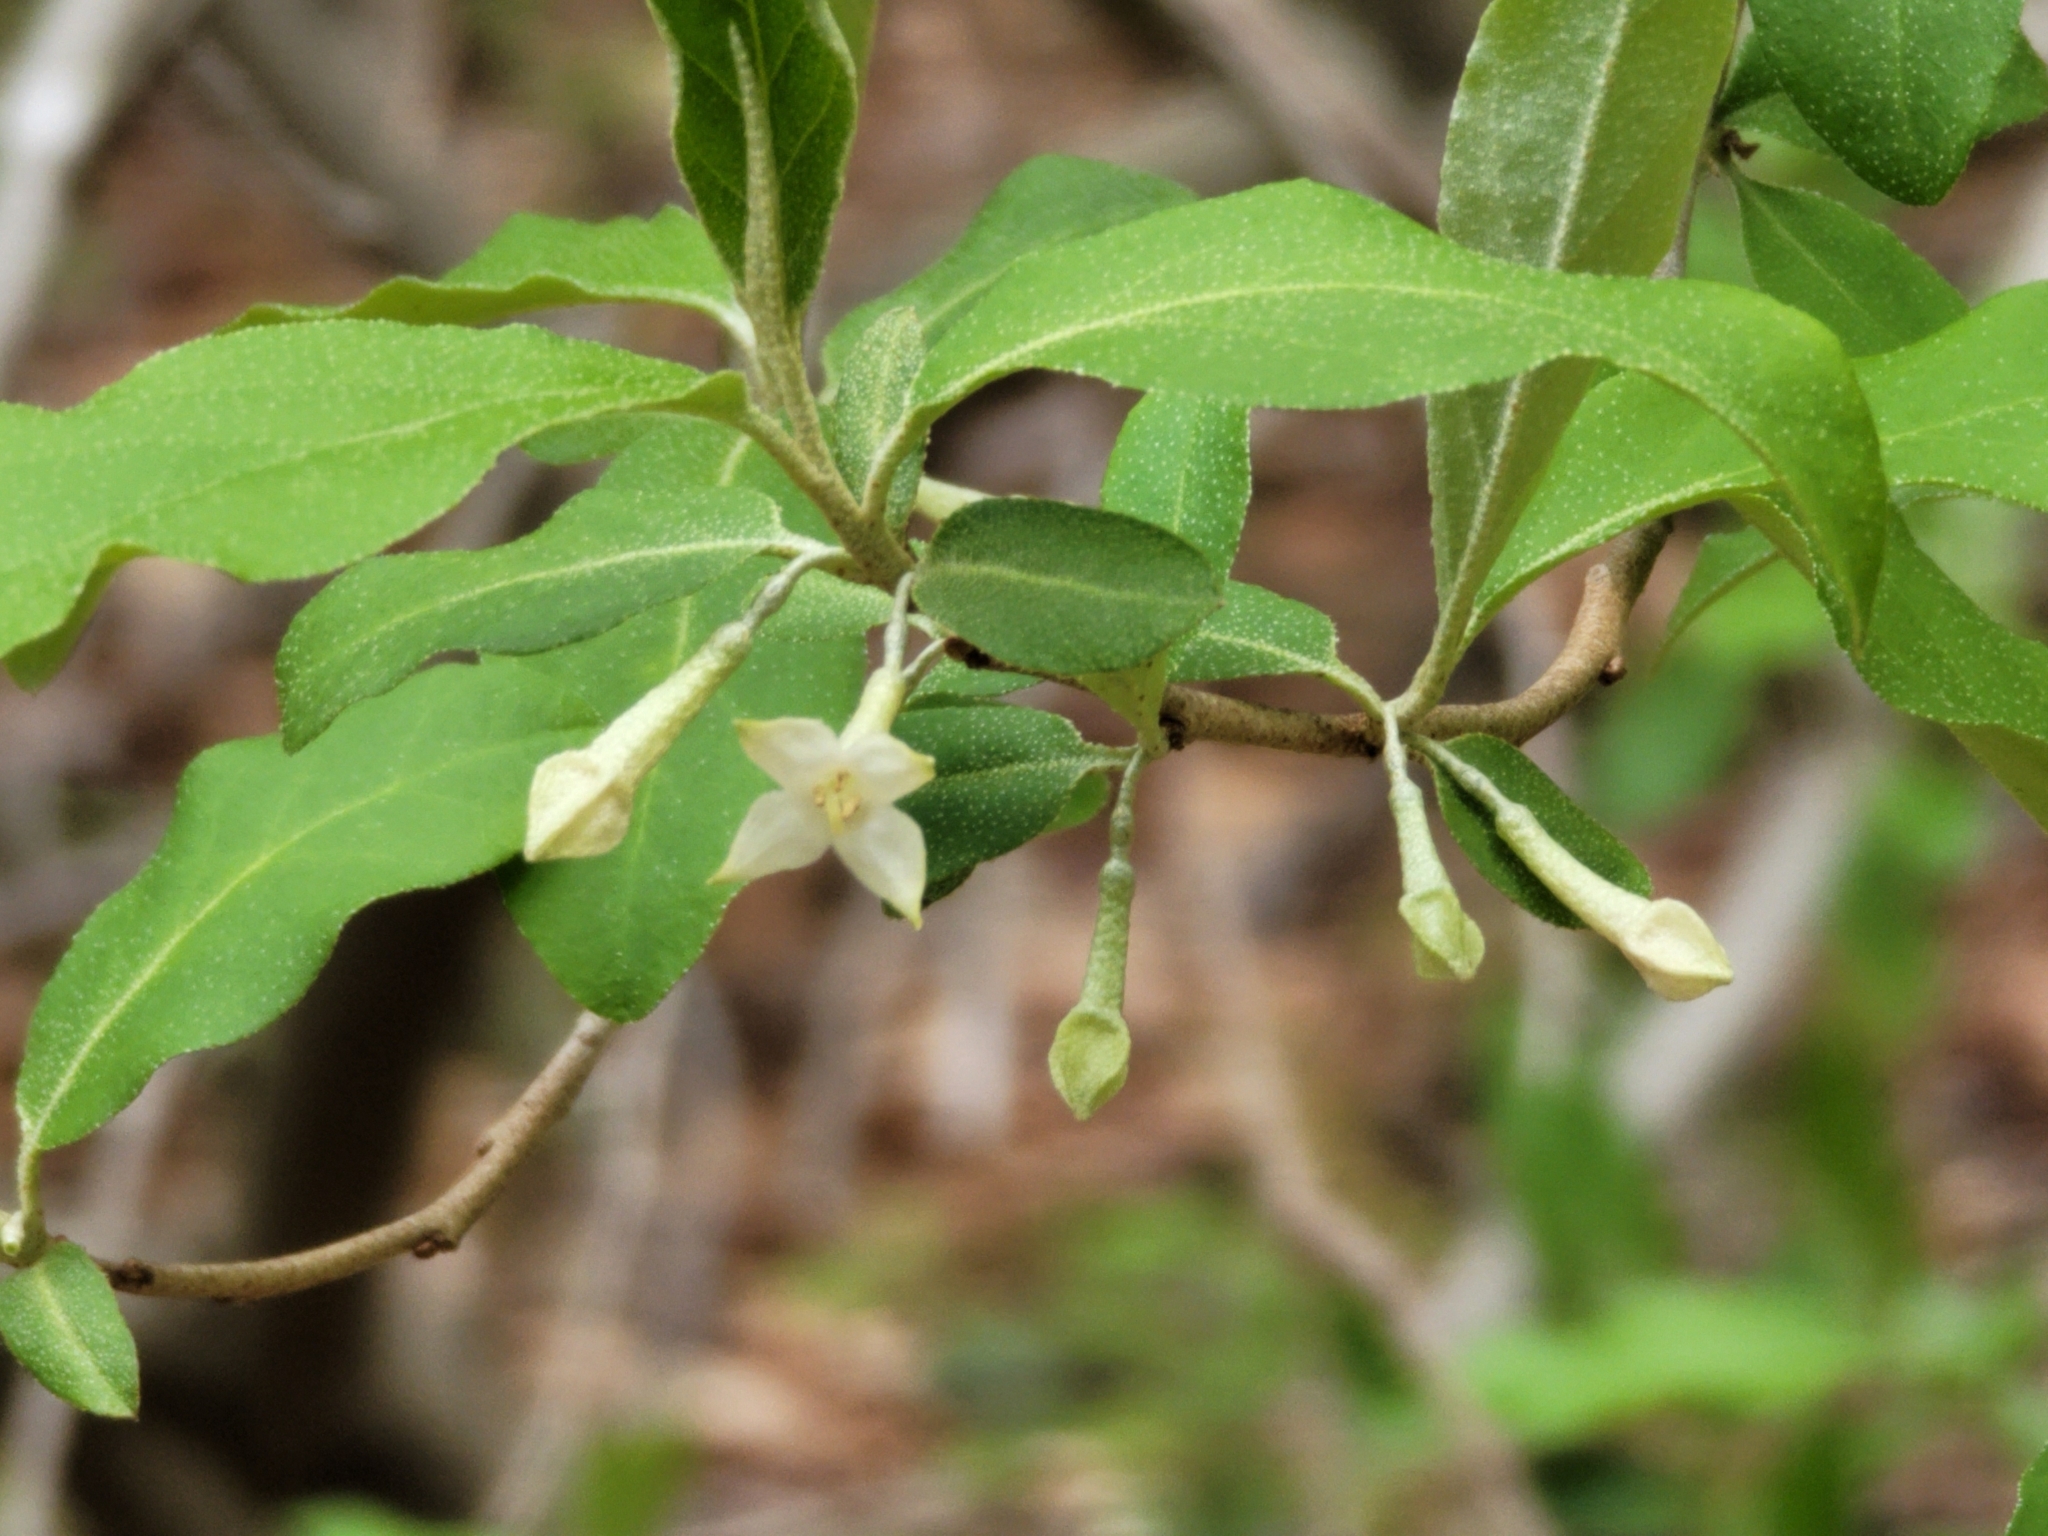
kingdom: Plantae
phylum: Tracheophyta
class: Magnoliopsida
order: Rosales
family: Elaeagnaceae
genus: Elaeagnus
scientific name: Elaeagnus umbellata
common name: Autumn olive
